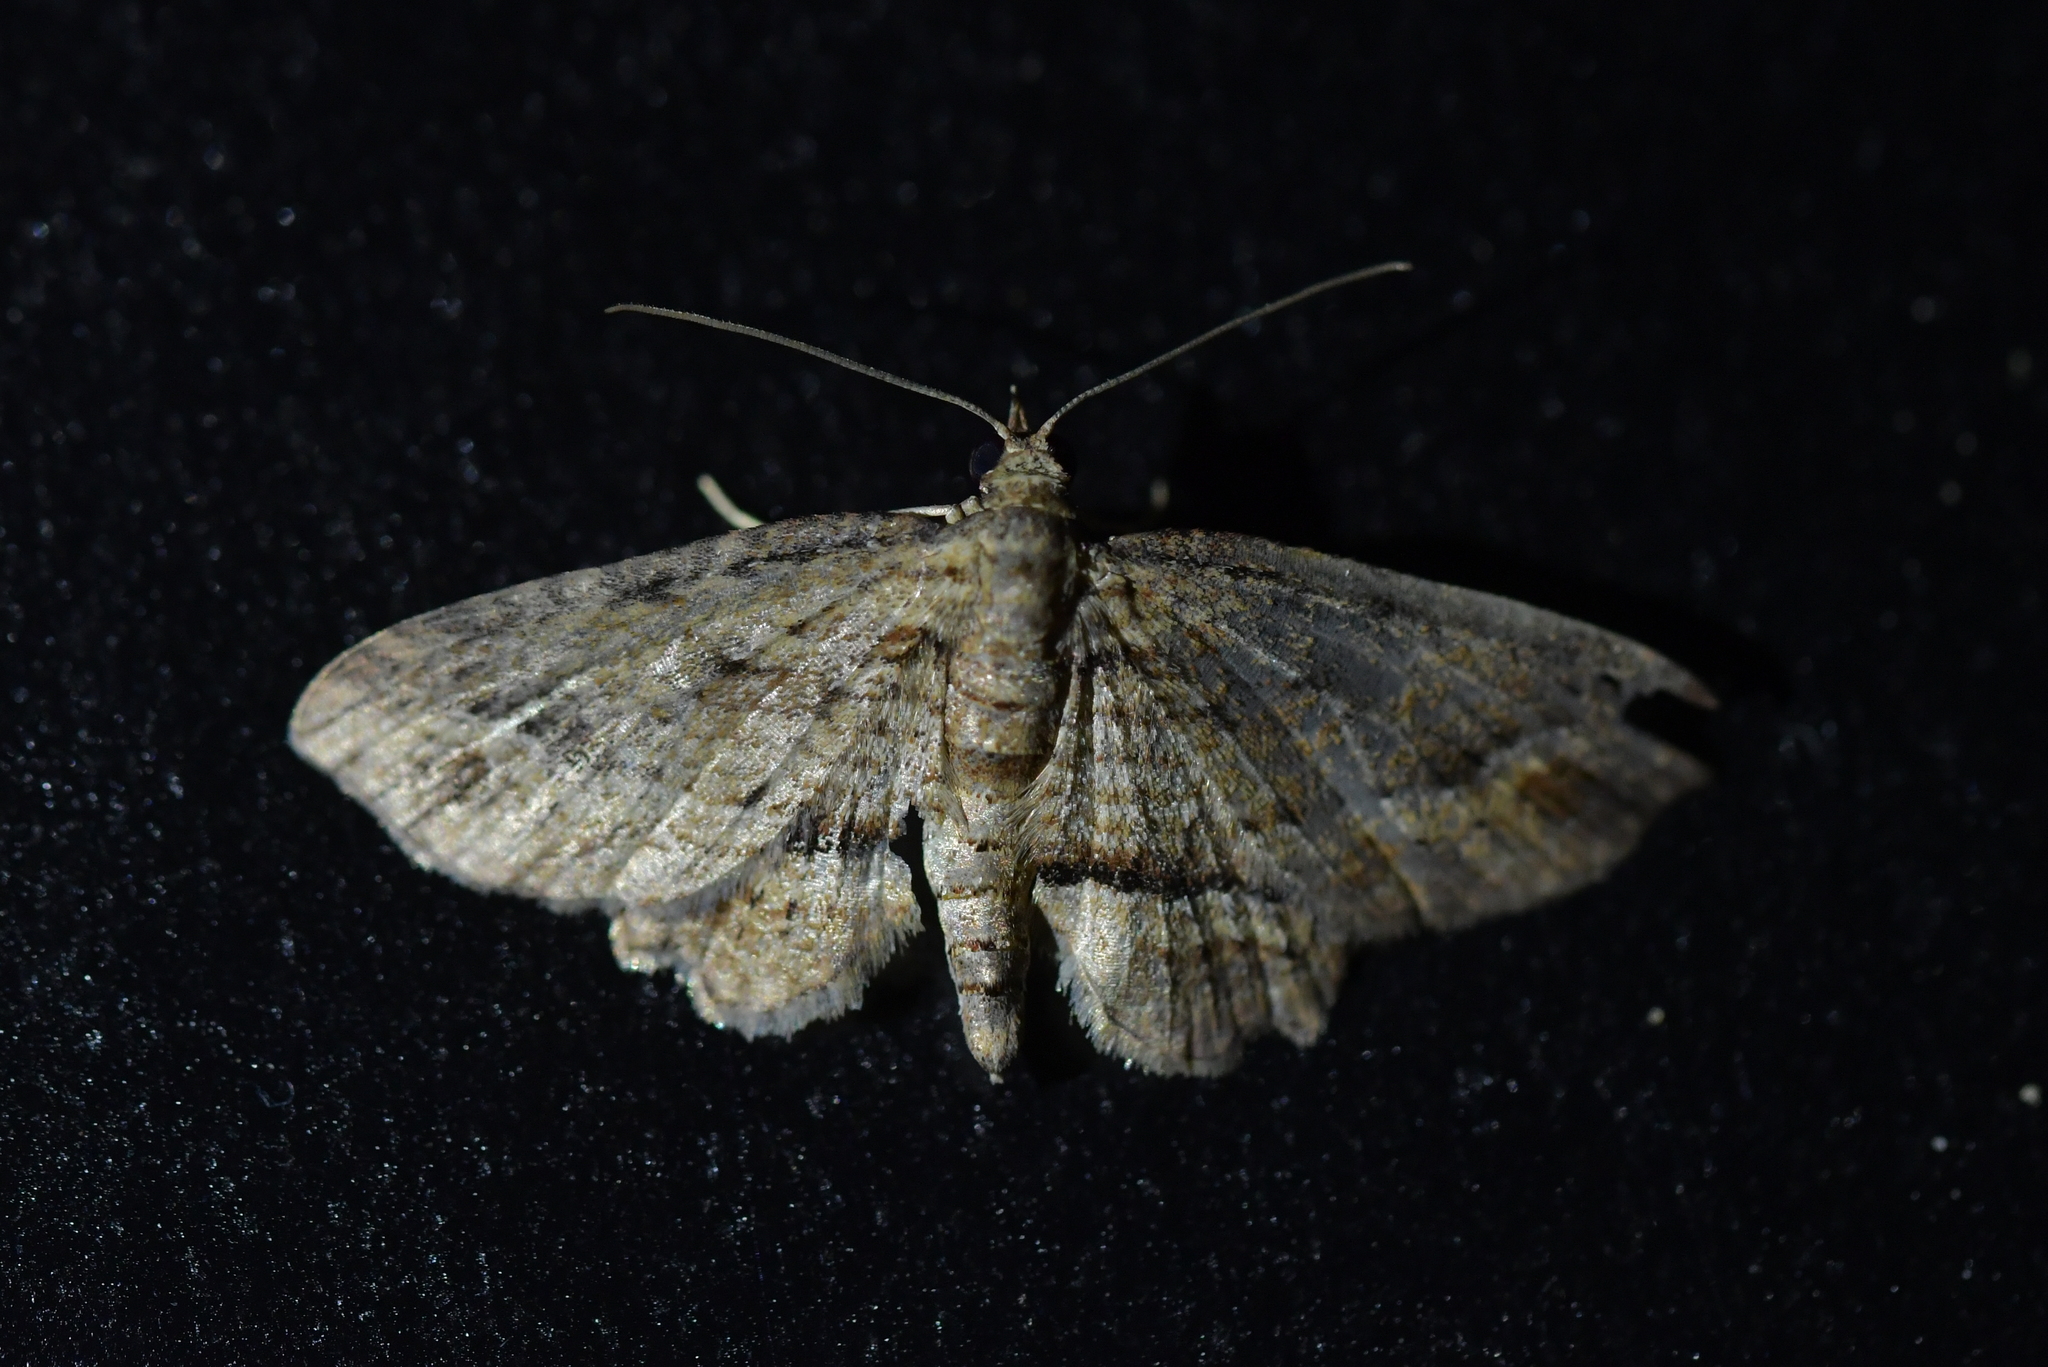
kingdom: Animalia
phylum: Arthropoda
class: Insecta
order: Lepidoptera
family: Geometridae
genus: Chloroclystis
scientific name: Chloroclystis filata
